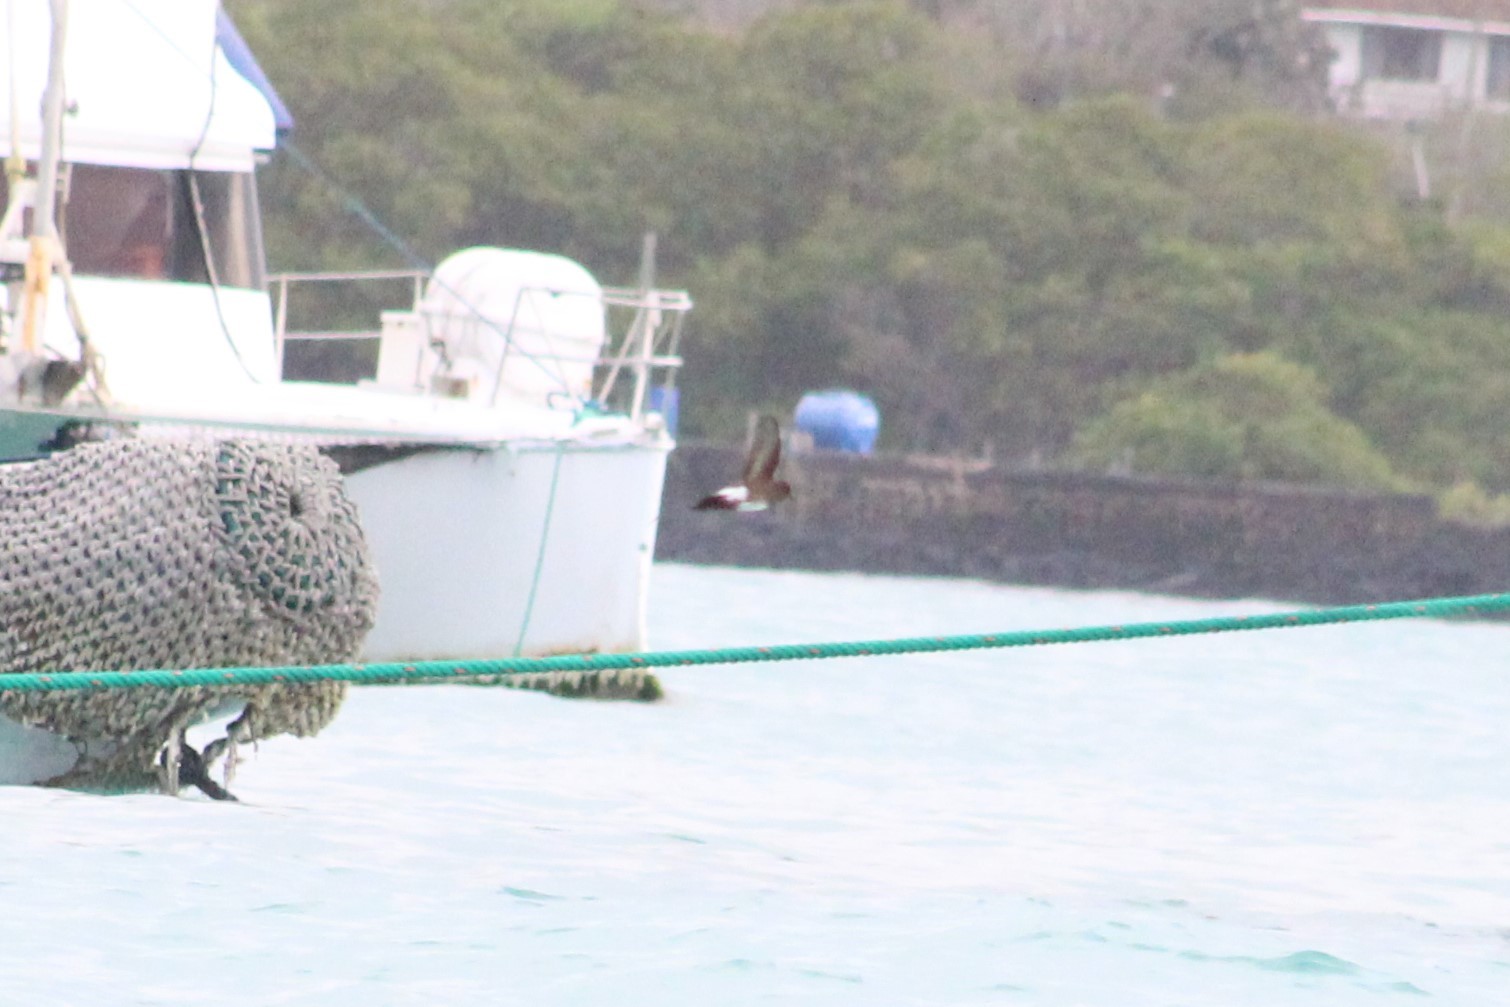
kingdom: Animalia
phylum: Chordata
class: Aves
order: Procellariiformes
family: Hydrobatidae
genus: Oceanites
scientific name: Oceanites gracilis
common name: Elliot's storm-petrel
